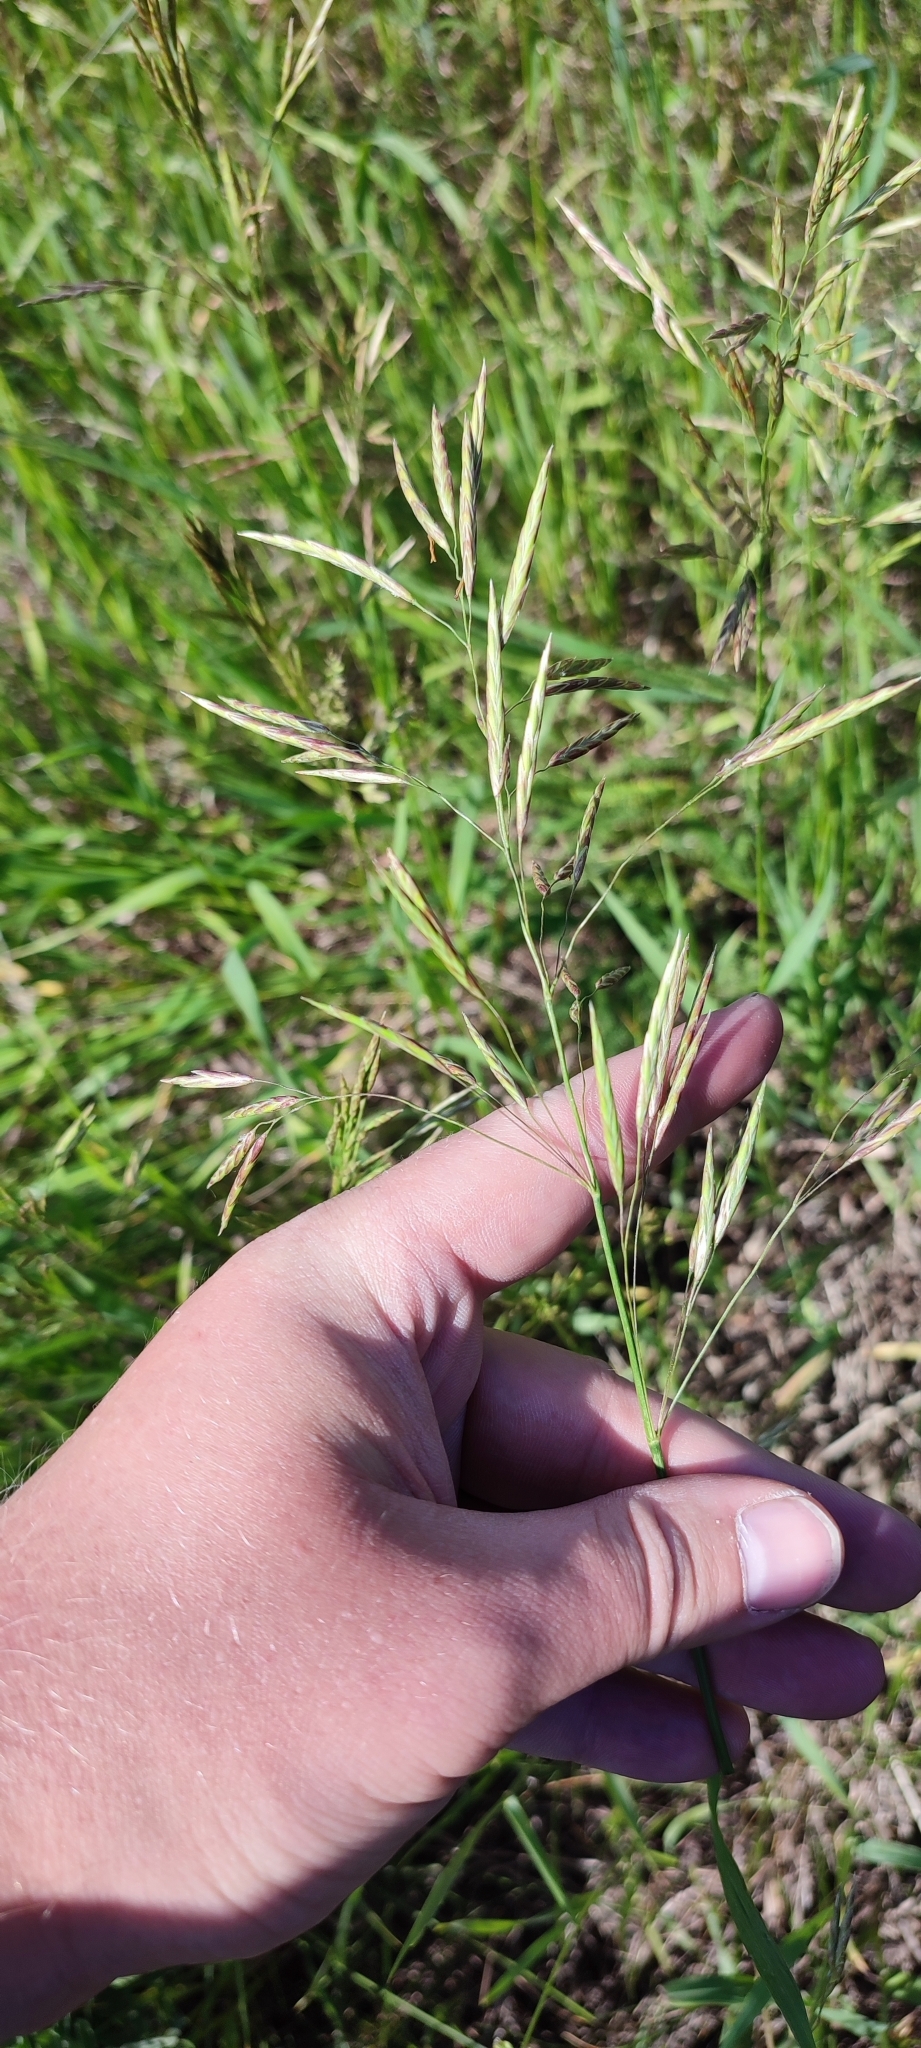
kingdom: Plantae
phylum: Tracheophyta
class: Liliopsida
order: Poales
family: Poaceae
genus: Bromus
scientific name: Bromus inermis
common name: Smooth brome
